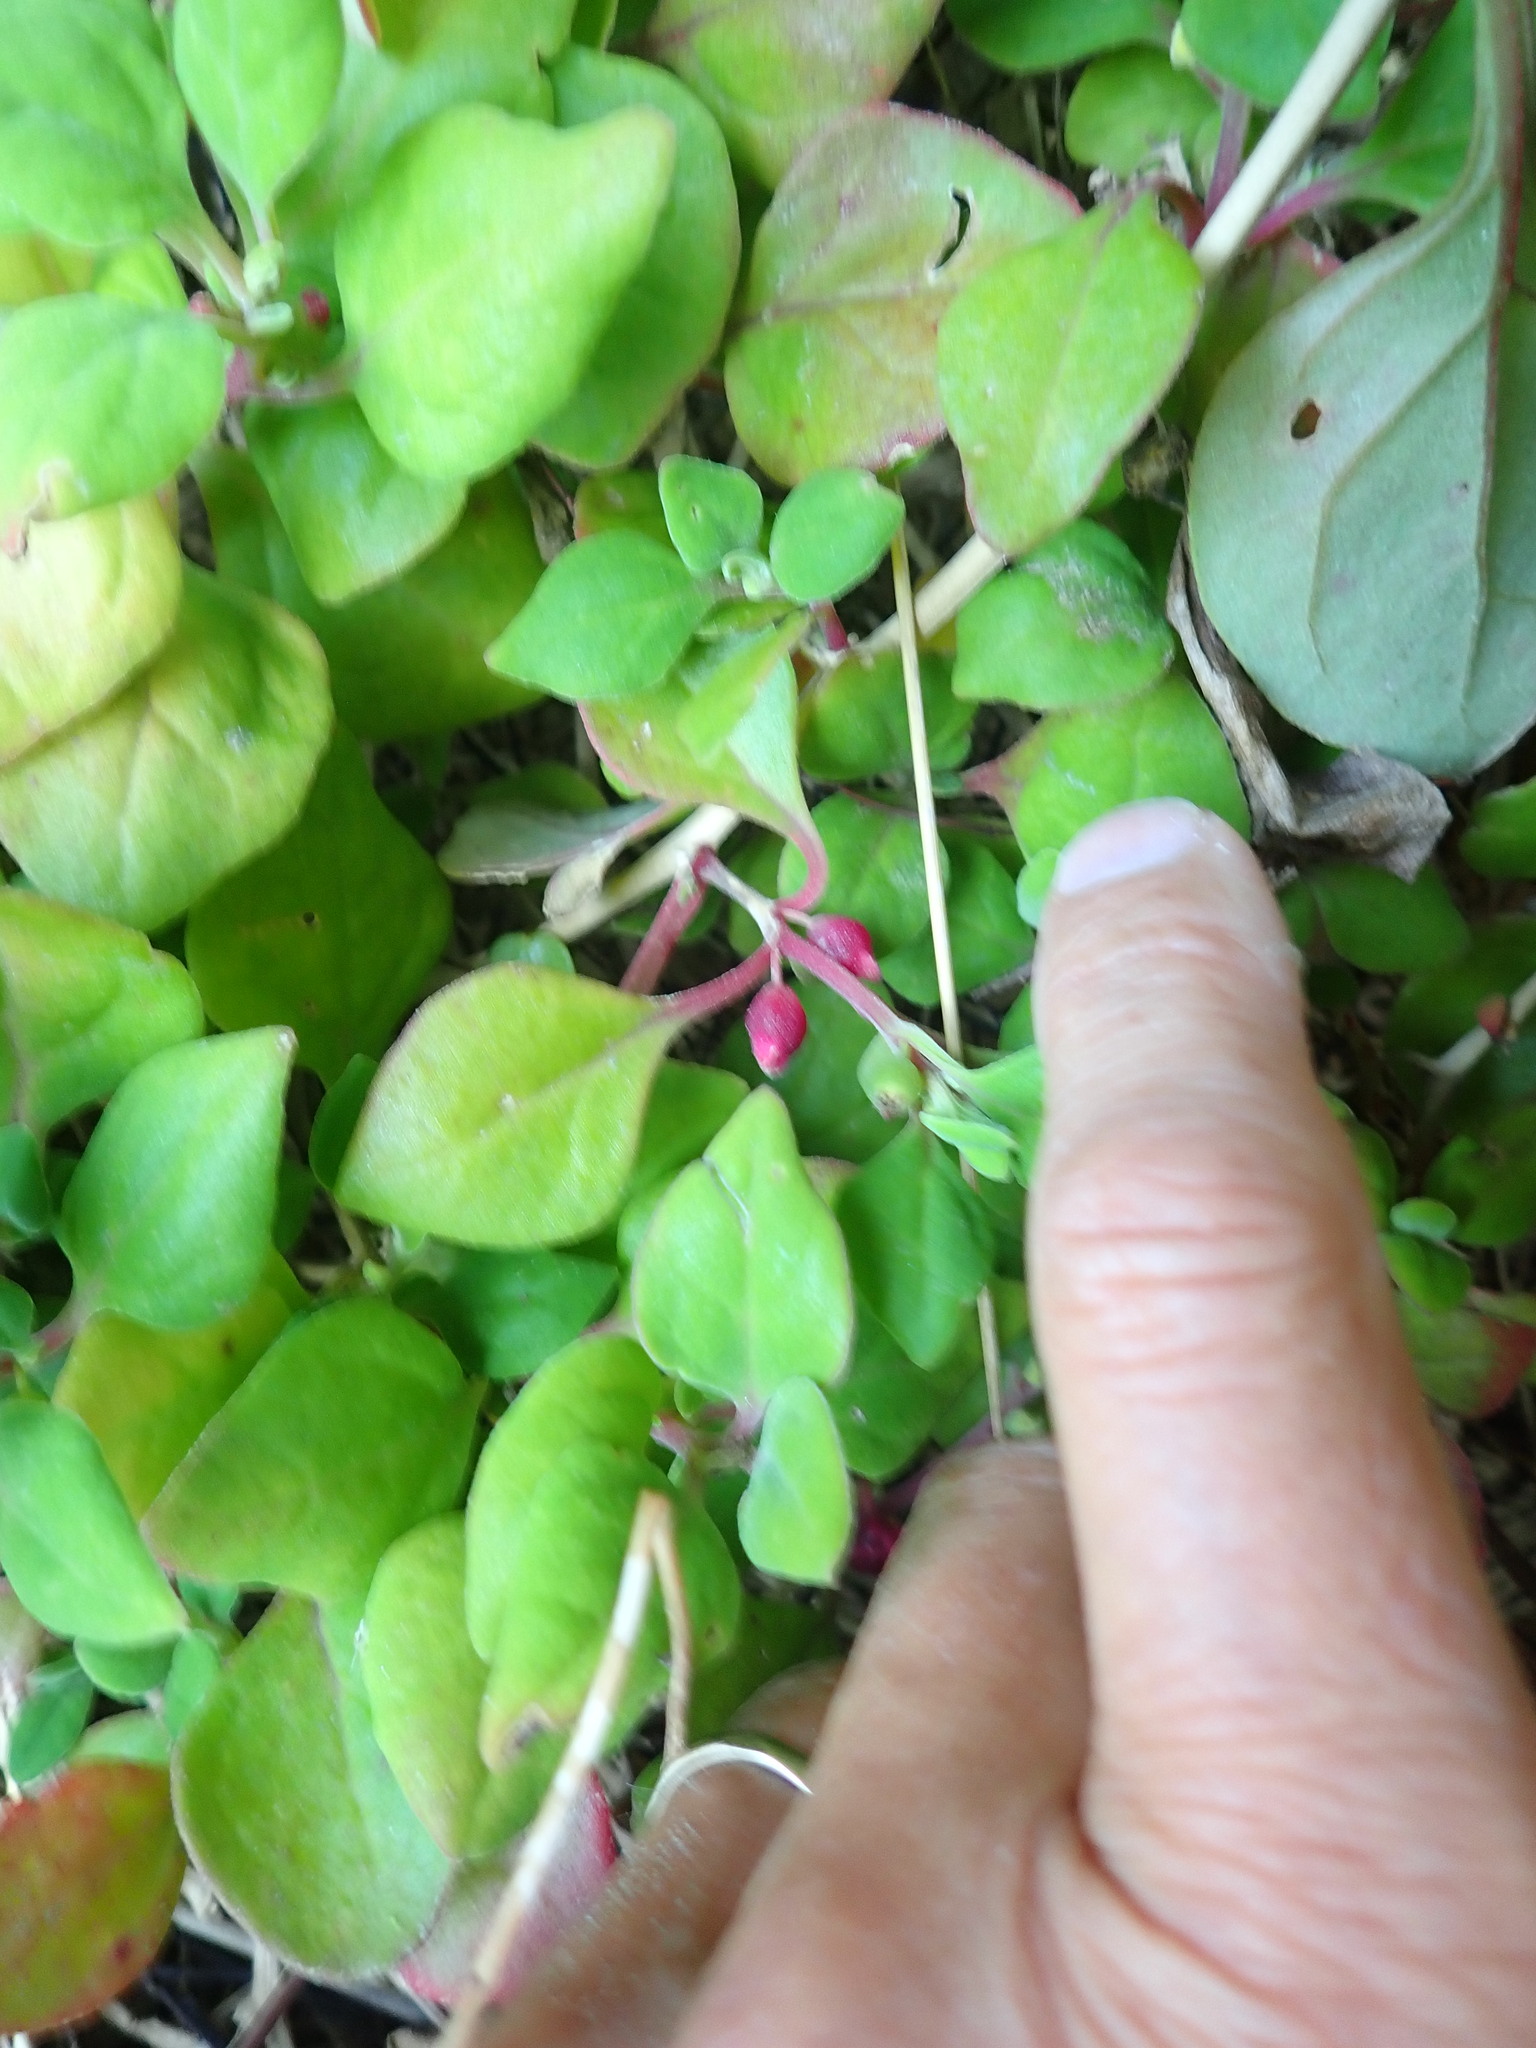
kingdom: Plantae
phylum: Tracheophyta
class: Magnoliopsida
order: Caryophyllales
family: Aizoaceae
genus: Tetragonia
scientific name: Tetragonia implexicoma
